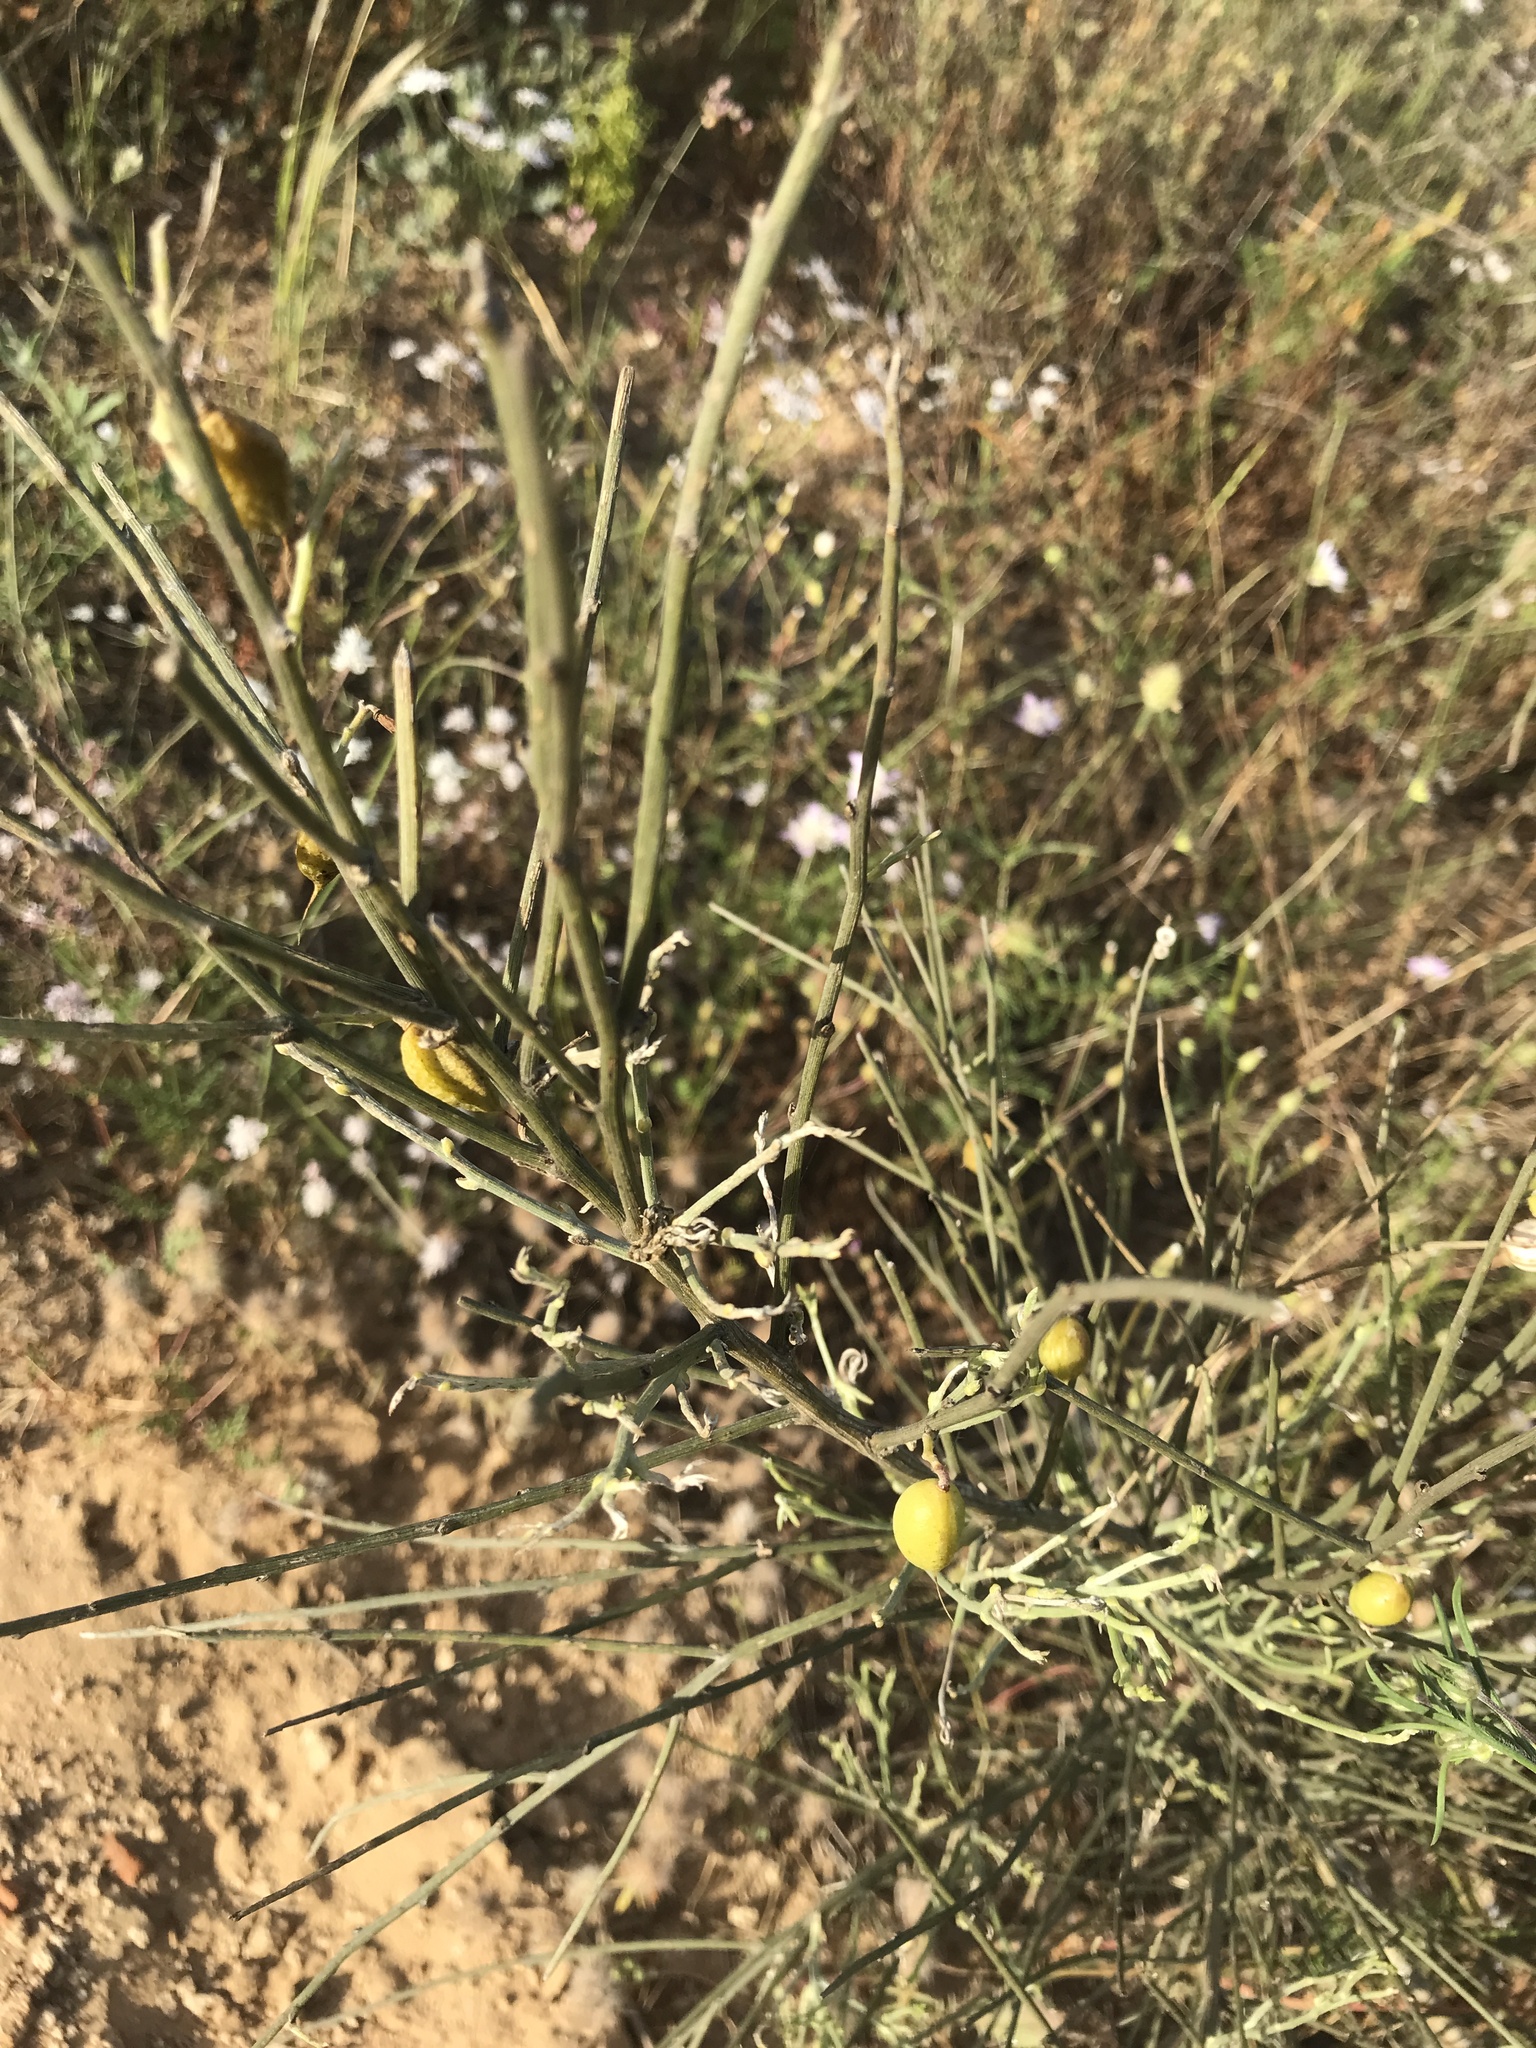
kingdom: Plantae
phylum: Tracheophyta
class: Magnoliopsida
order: Fabales
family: Fabaceae
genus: Retama
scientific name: Retama raetam
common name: Retem
